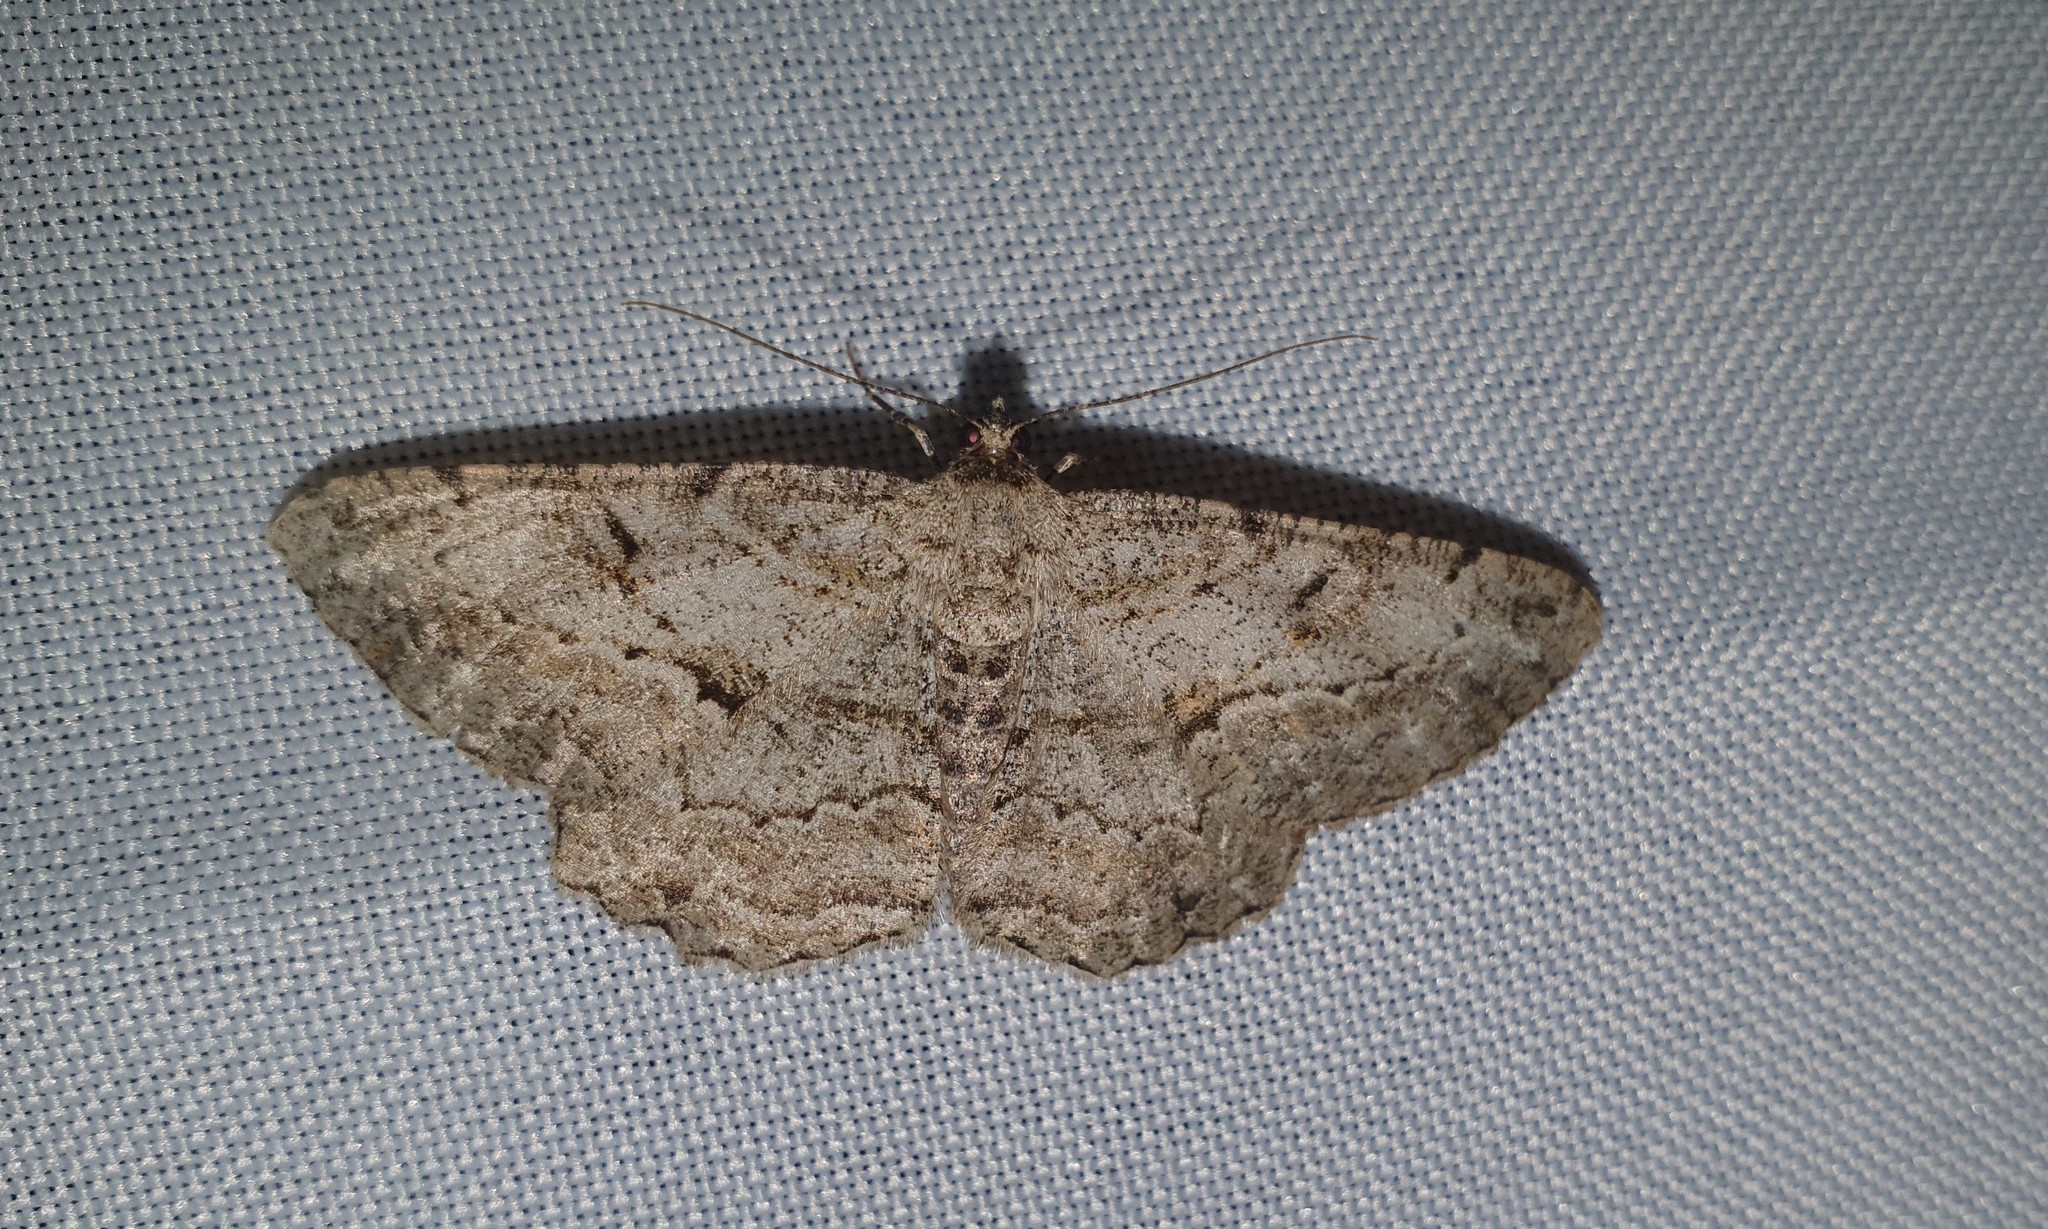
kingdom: Animalia
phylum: Arthropoda
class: Insecta
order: Lepidoptera
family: Geometridae
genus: Peribatodes
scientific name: Peribatodes rhomboidaria
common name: Willow beauty
